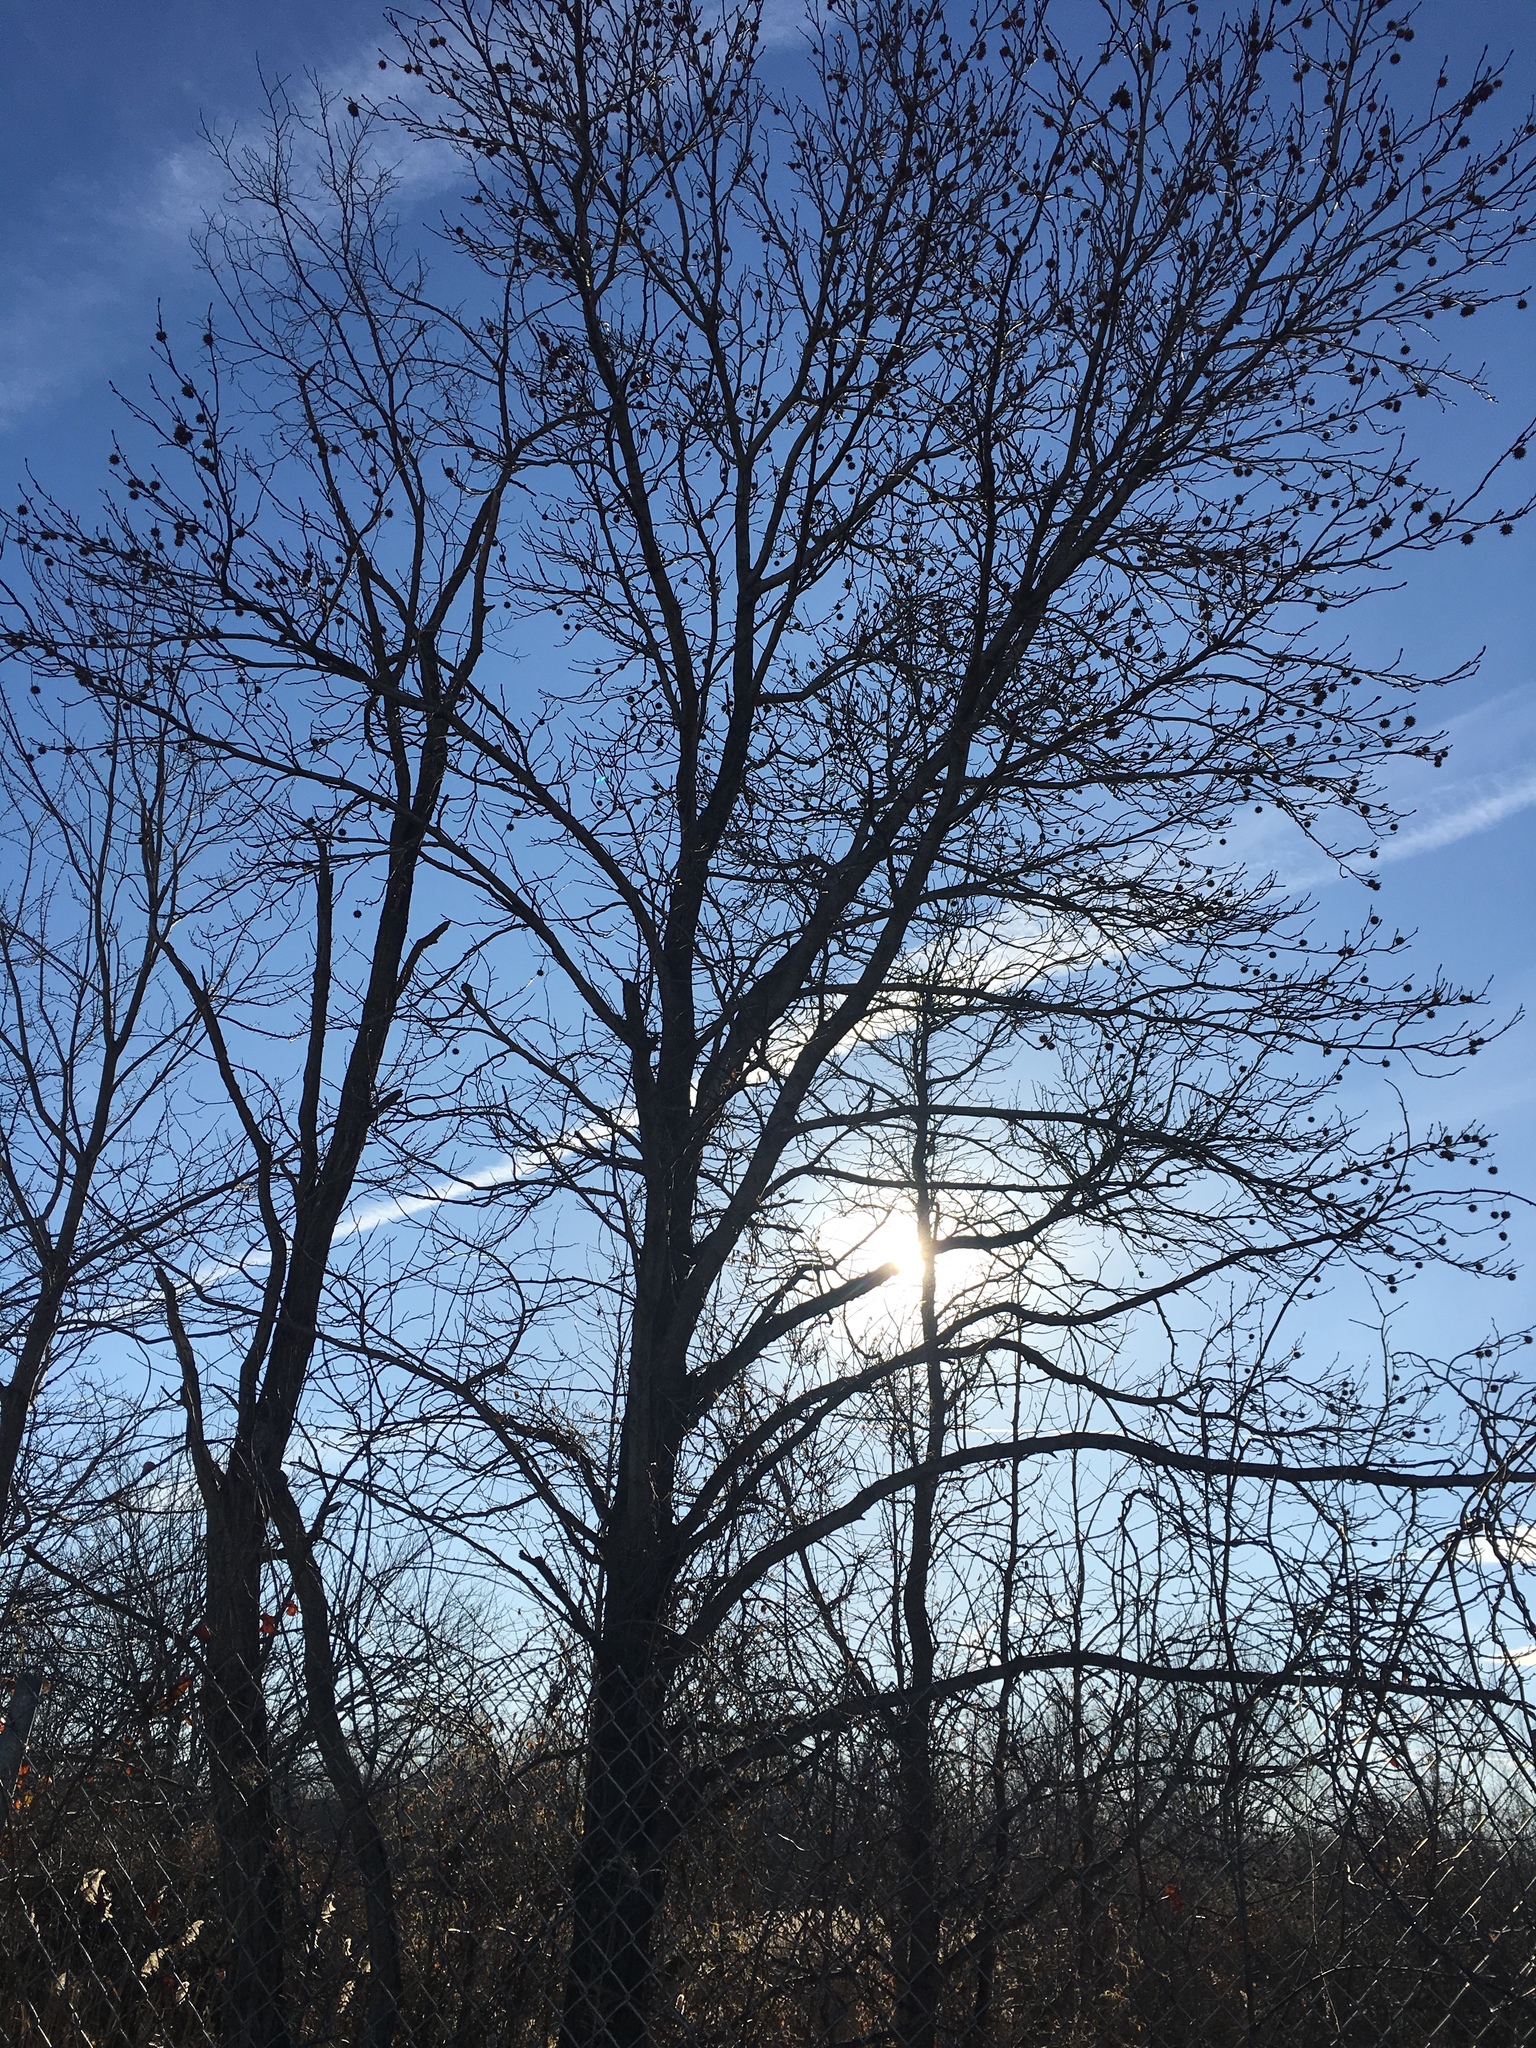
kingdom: Plantae
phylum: Tracheophyta
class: Magnoliopsida
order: Saxifragales
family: Altingiaceae
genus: Liquidambar
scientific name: Liquidambar styraciflua
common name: Sweet gum
